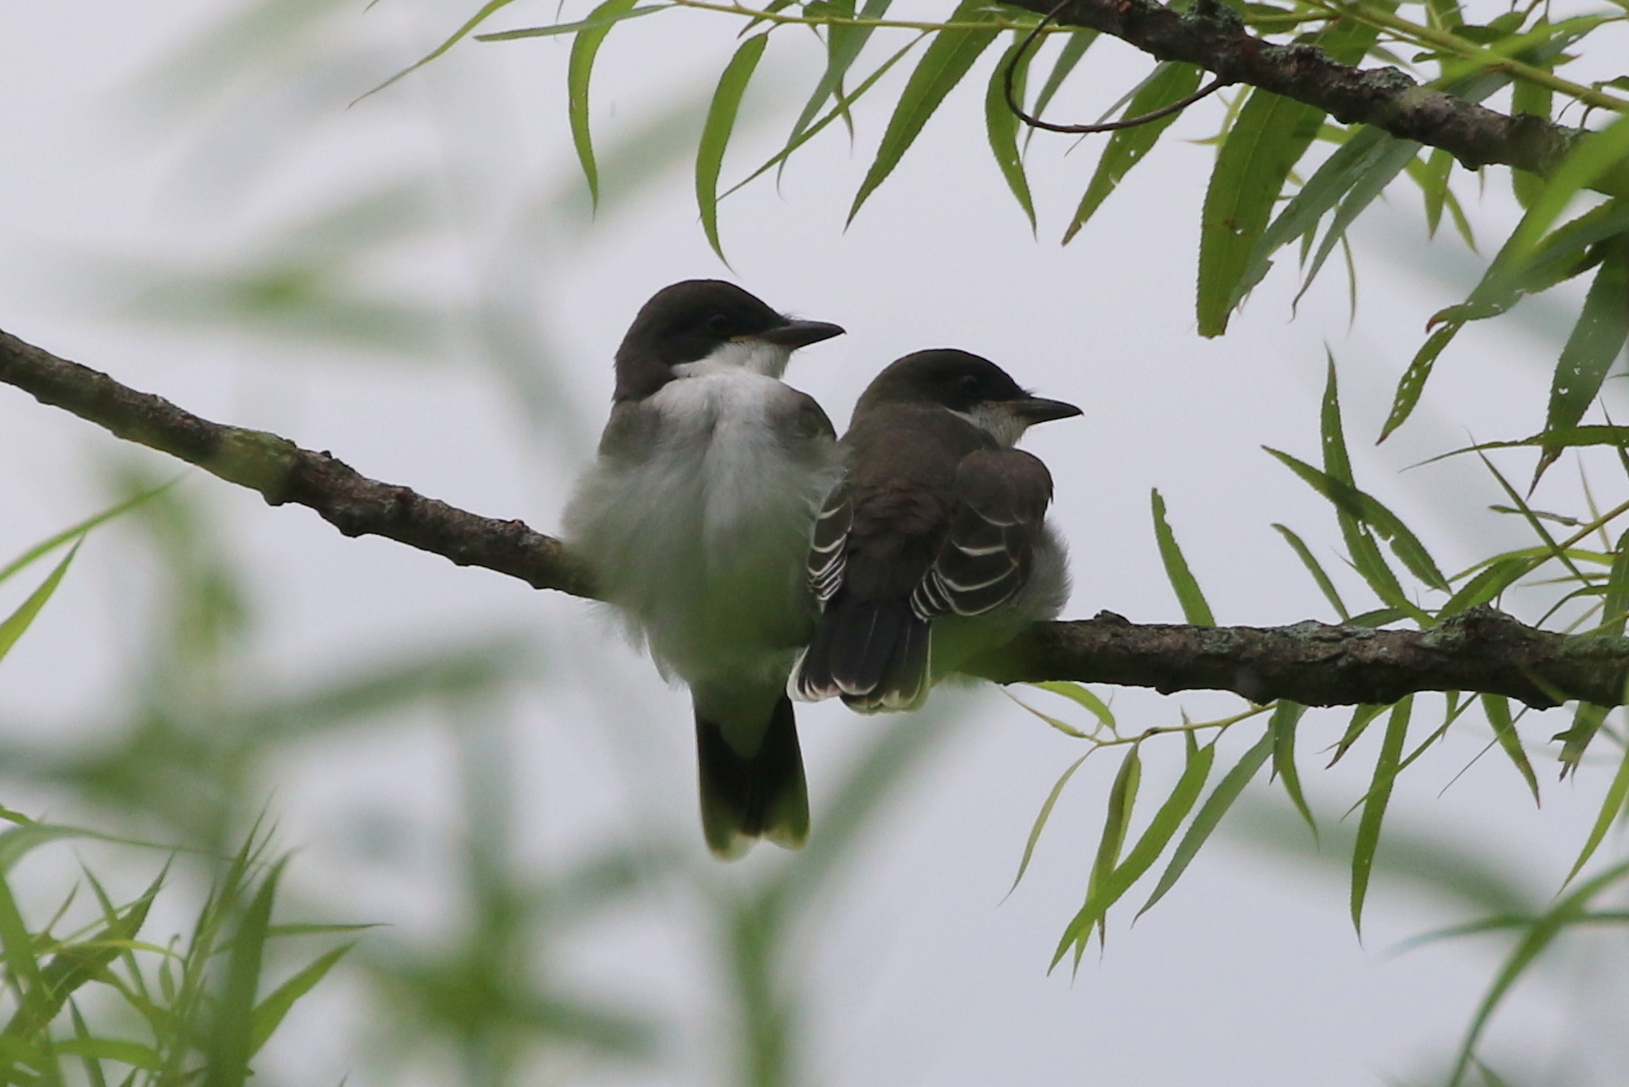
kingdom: Animalia
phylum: Chordata
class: Aves
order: Passeriformes
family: Tyrannidae
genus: Tyrannus
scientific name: Tyrannus tyrannus
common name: Eastern kingbird
